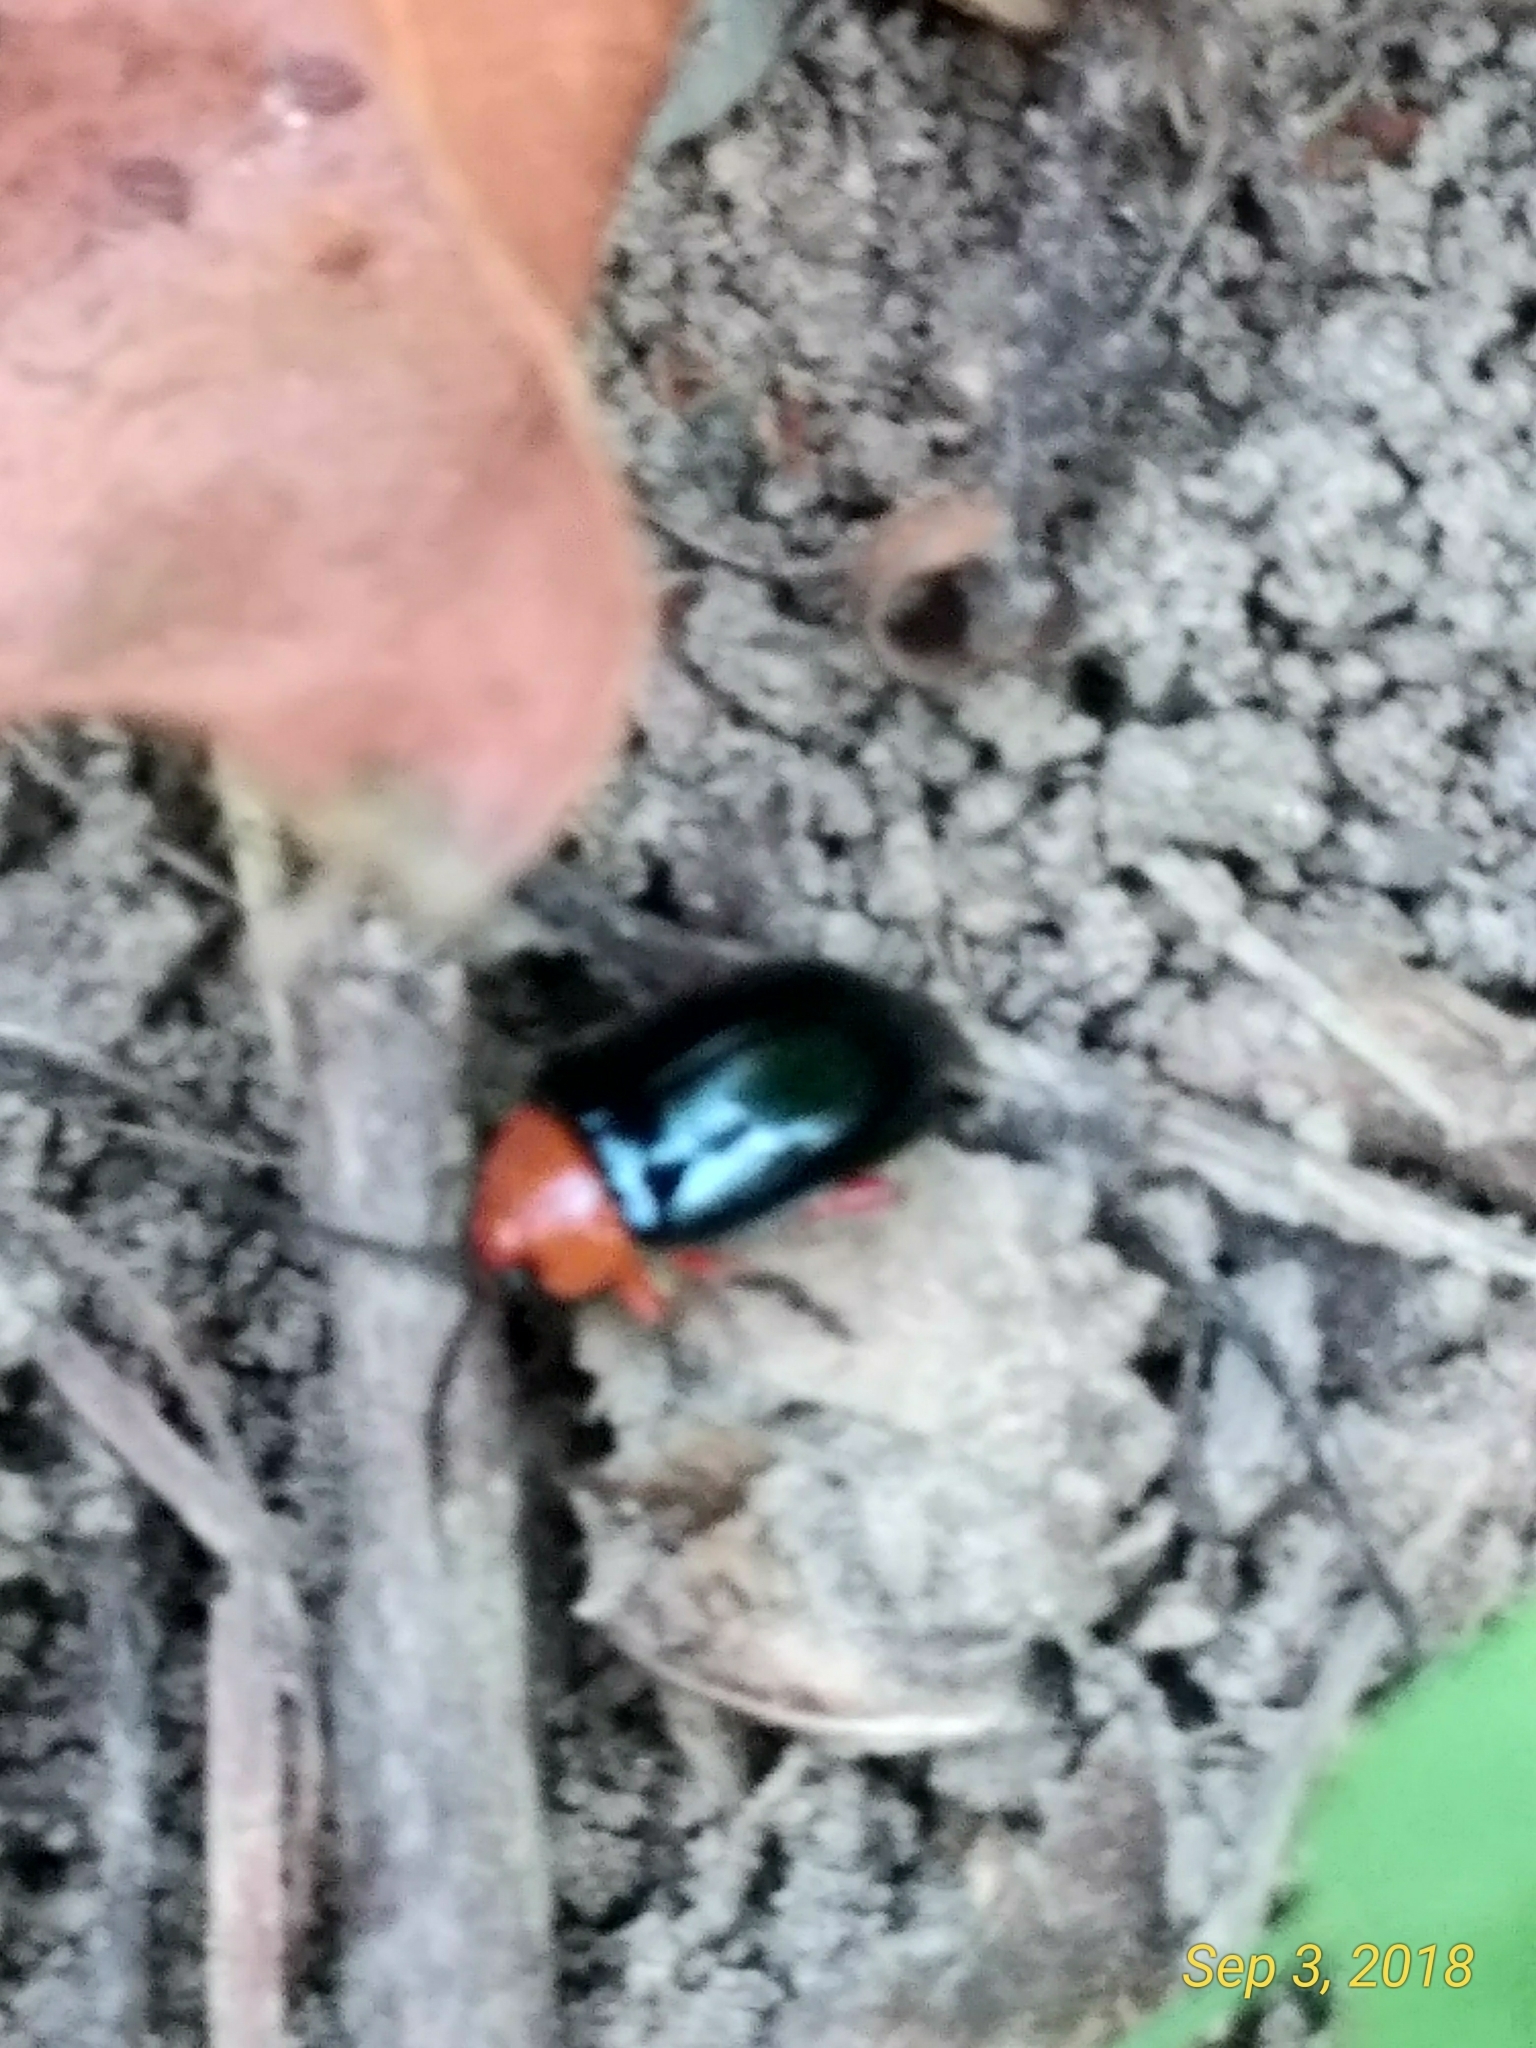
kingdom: Animalia
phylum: Arthropoda
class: Insecta
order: Coleoptera
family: Chrysomelidae
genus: Asphaera
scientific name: Asphaera lustrans
